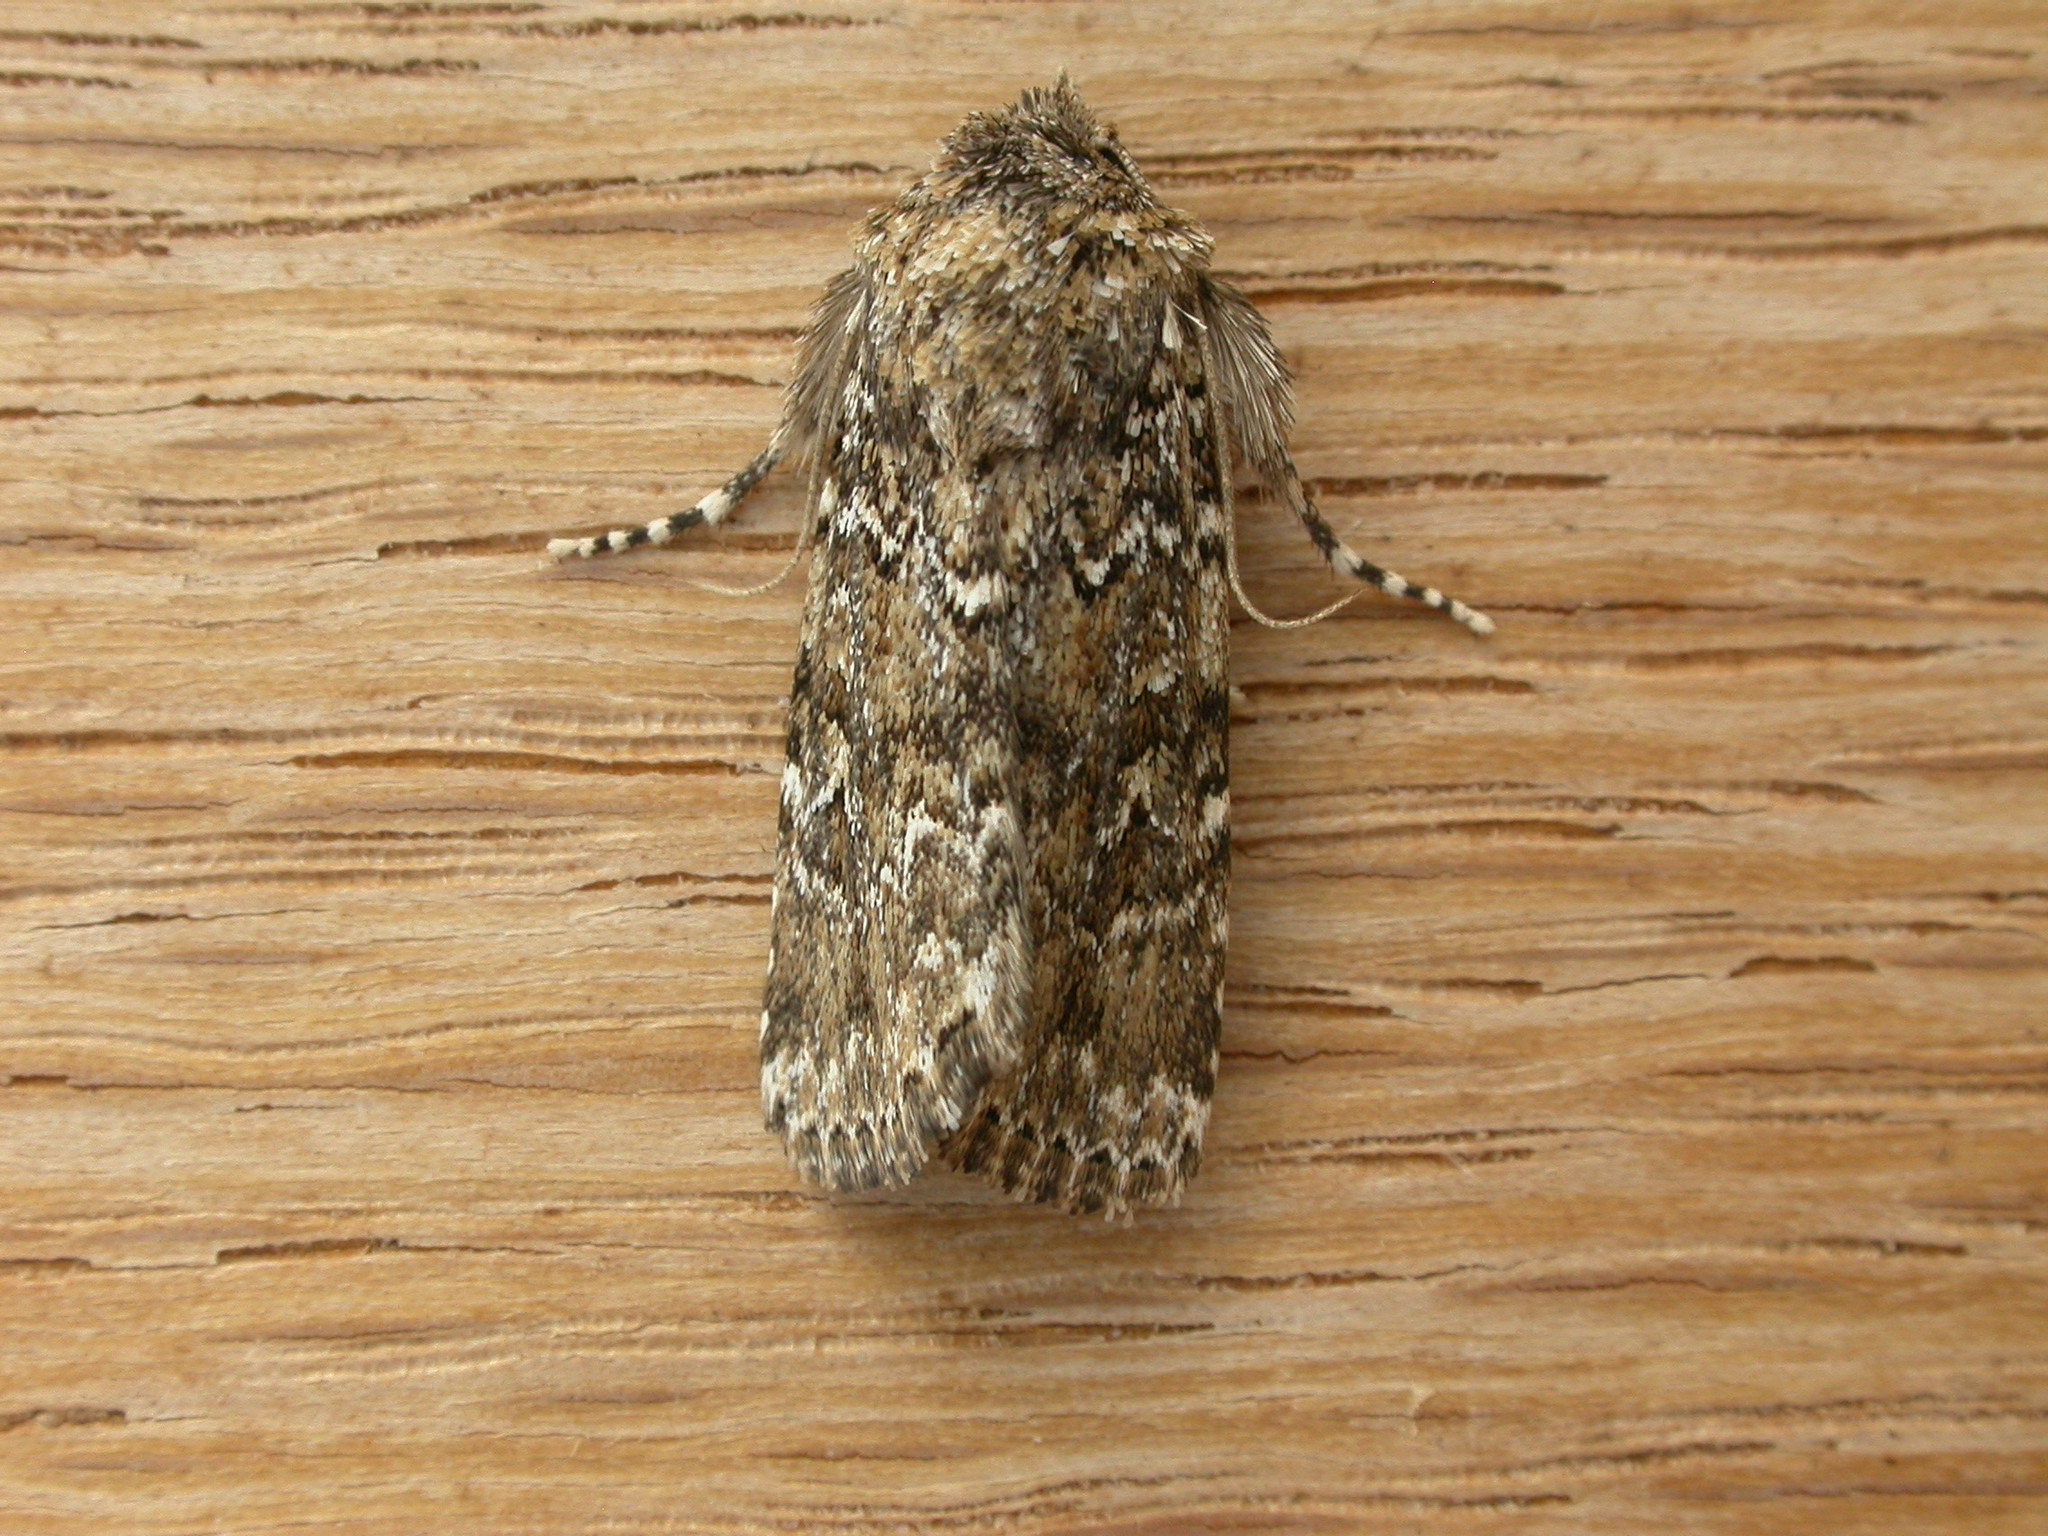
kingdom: Animalia
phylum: Arthropoda
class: Insecta
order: Lepidoptera
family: Noctuidae
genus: Ectopatria
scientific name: Ectopatria subrufescens
